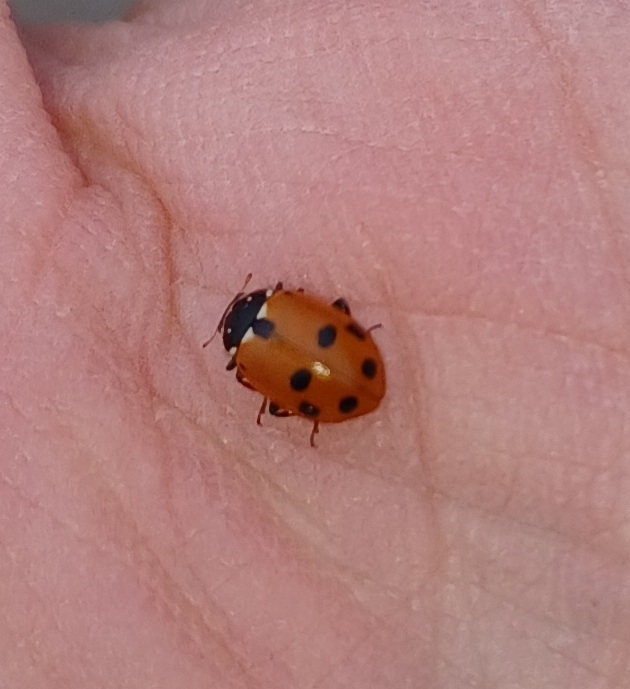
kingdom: Animalia
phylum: Arthropoda
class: Insecta
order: Coleoptera
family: Coccinellidae
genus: Hippodamia
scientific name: Hippodamia variegata
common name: Ladybird beetle
